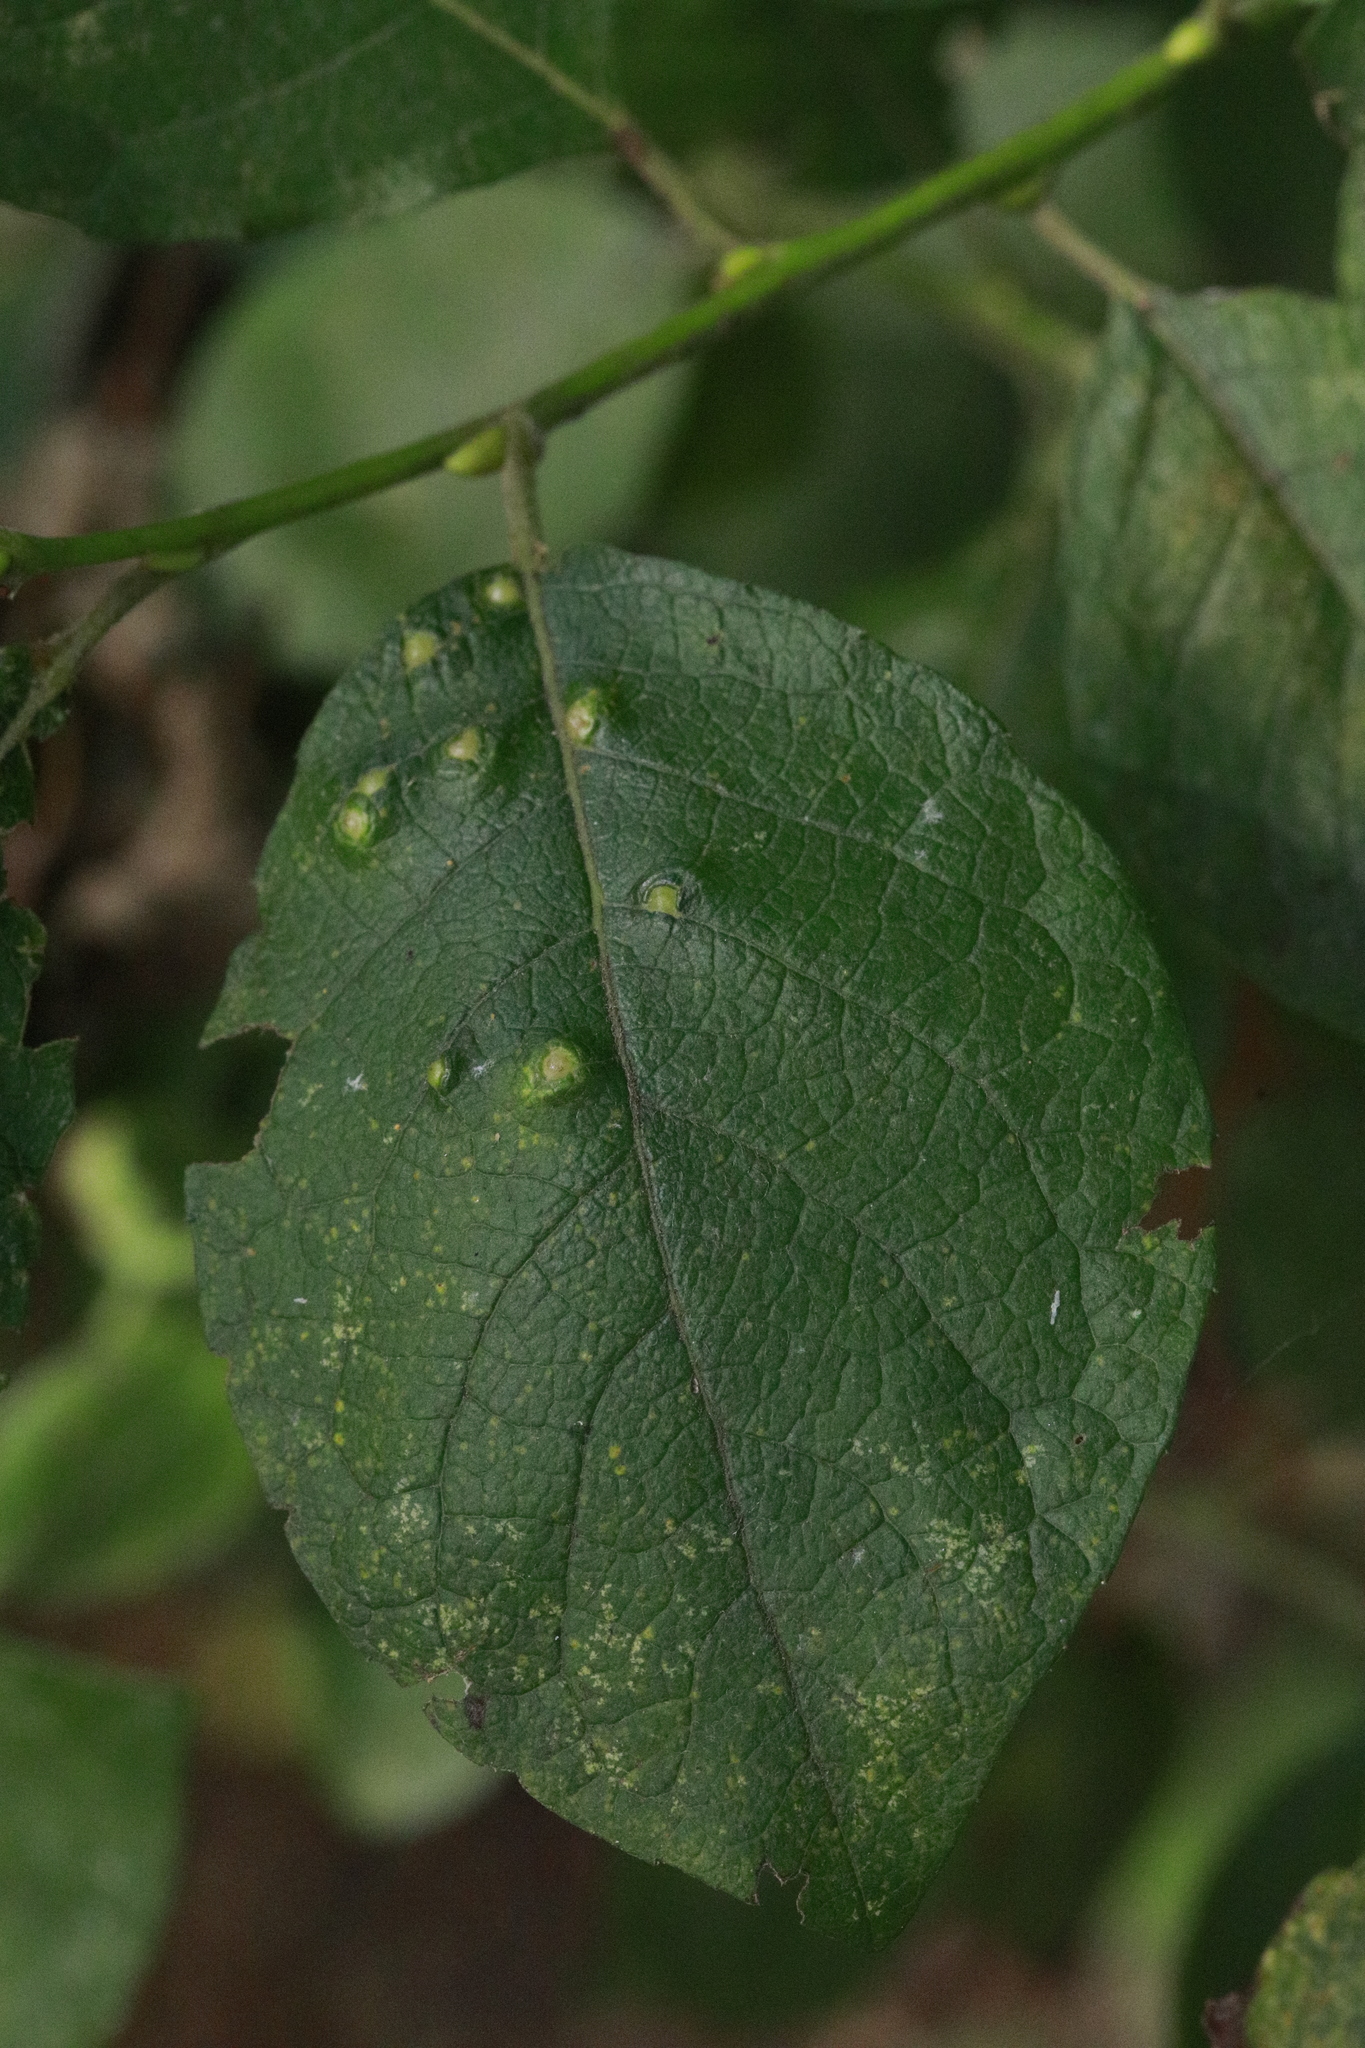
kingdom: Animalia
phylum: Arthropoda
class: Insecta
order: Diptera
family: Cecidomyiidae
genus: Iteomyia
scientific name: Iteomyia capreae
